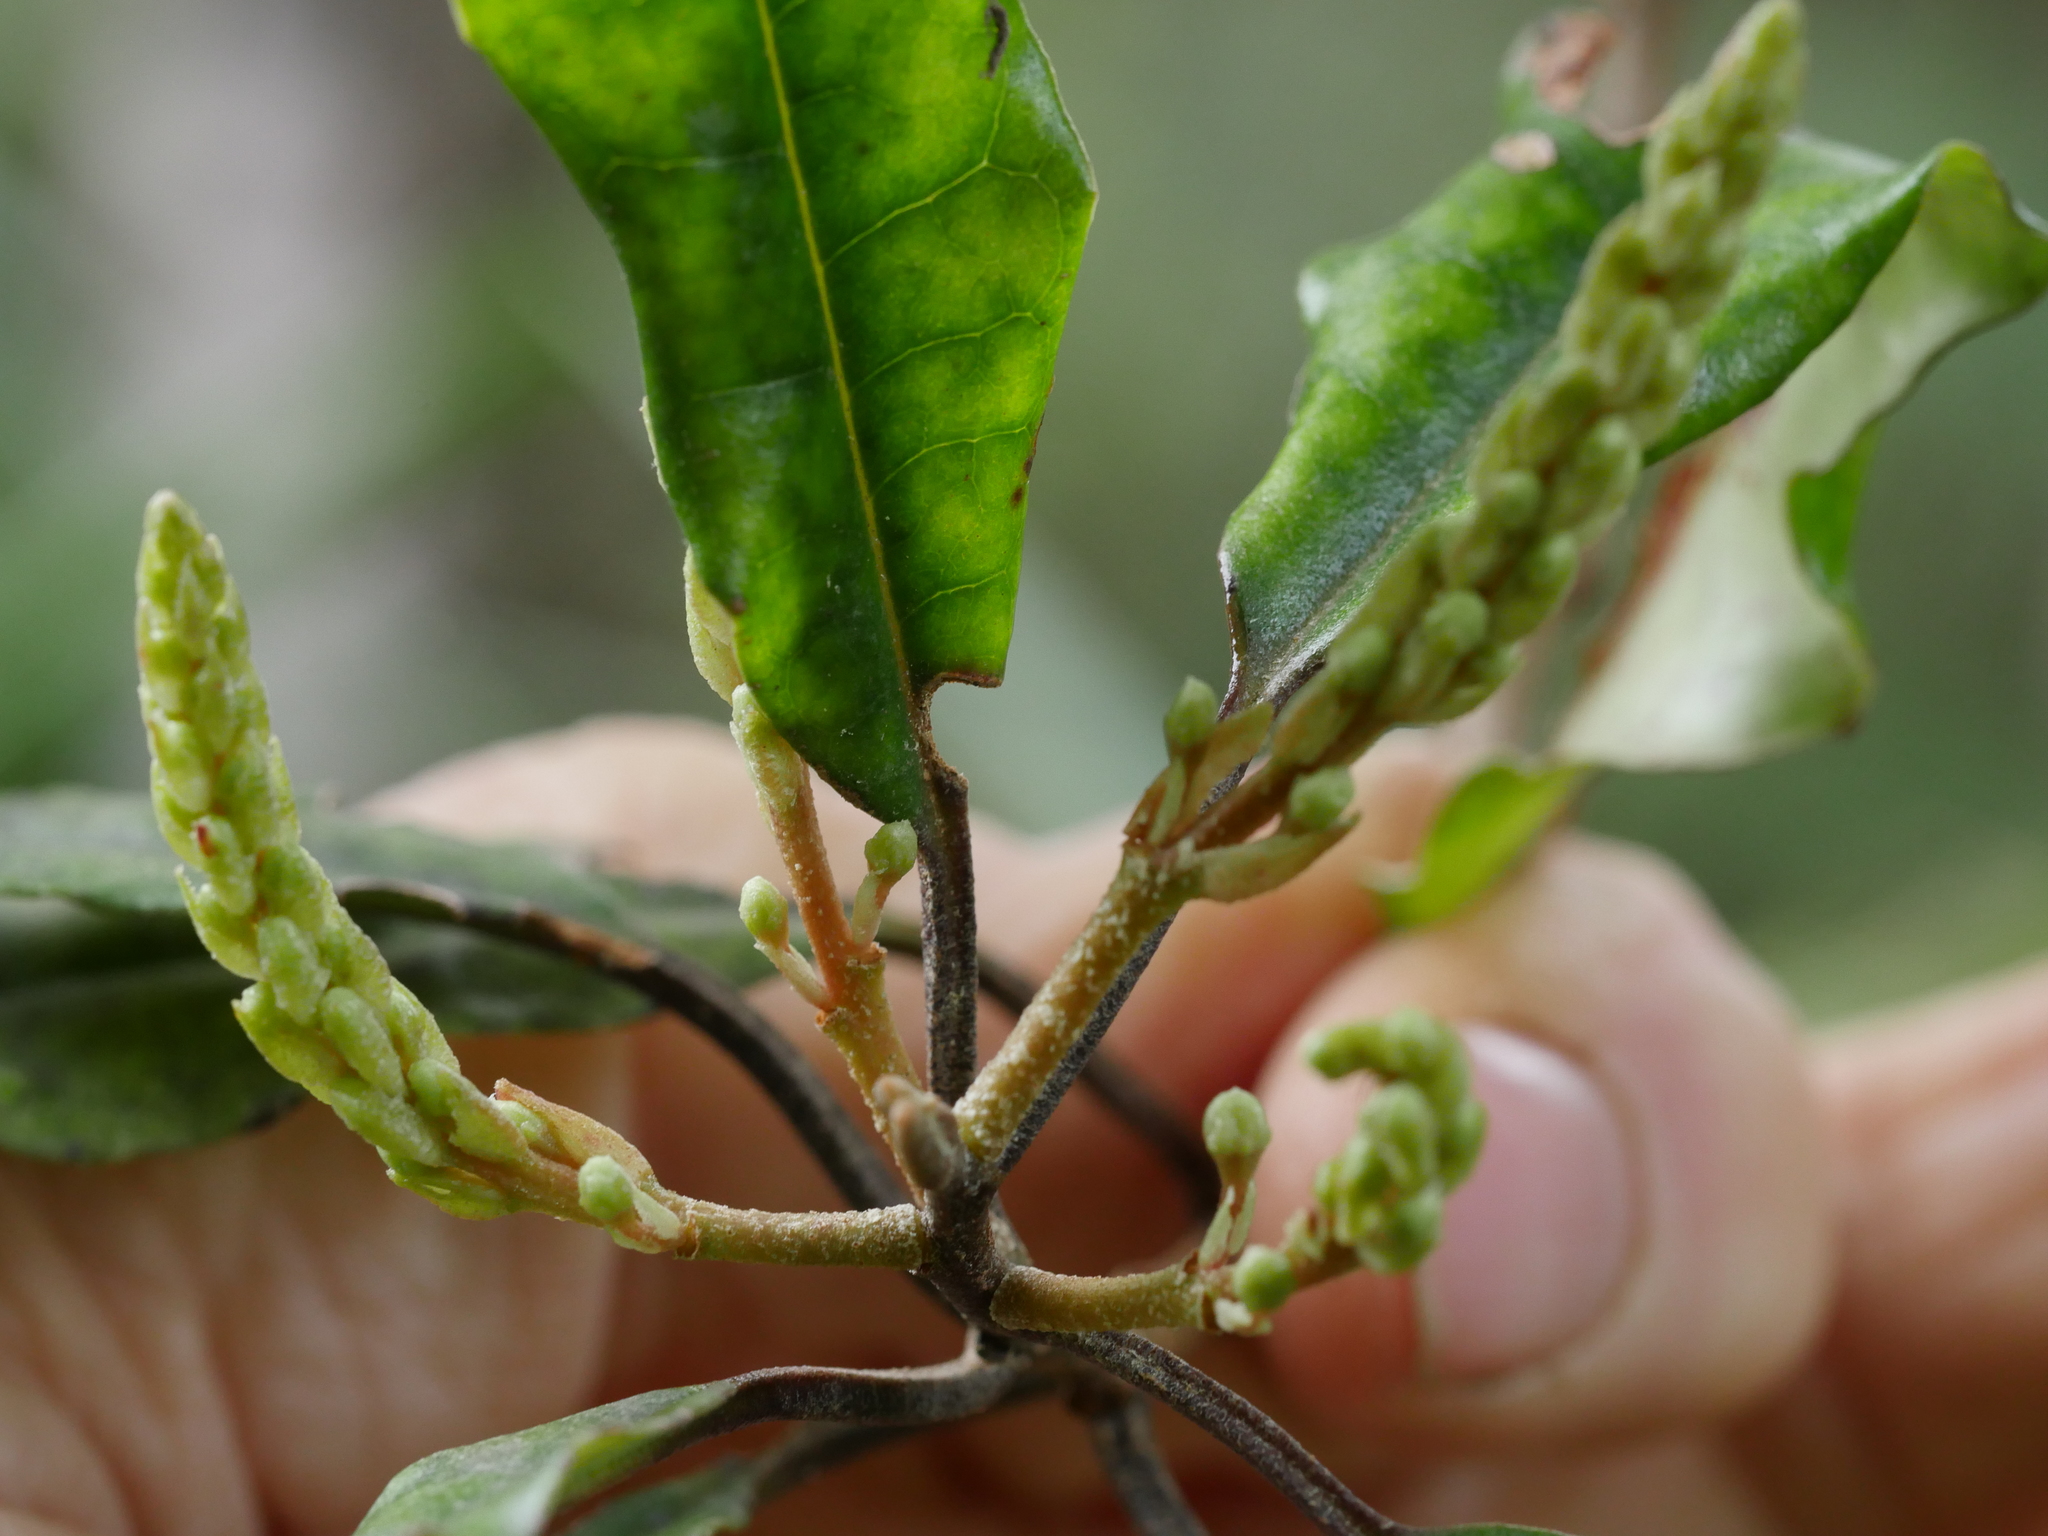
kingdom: Plantae
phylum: Tracheophyta
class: Magnoliopsida
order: Paracryphiales
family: Paracryphiaceae
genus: Quintinia
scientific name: Quintinia serrata
